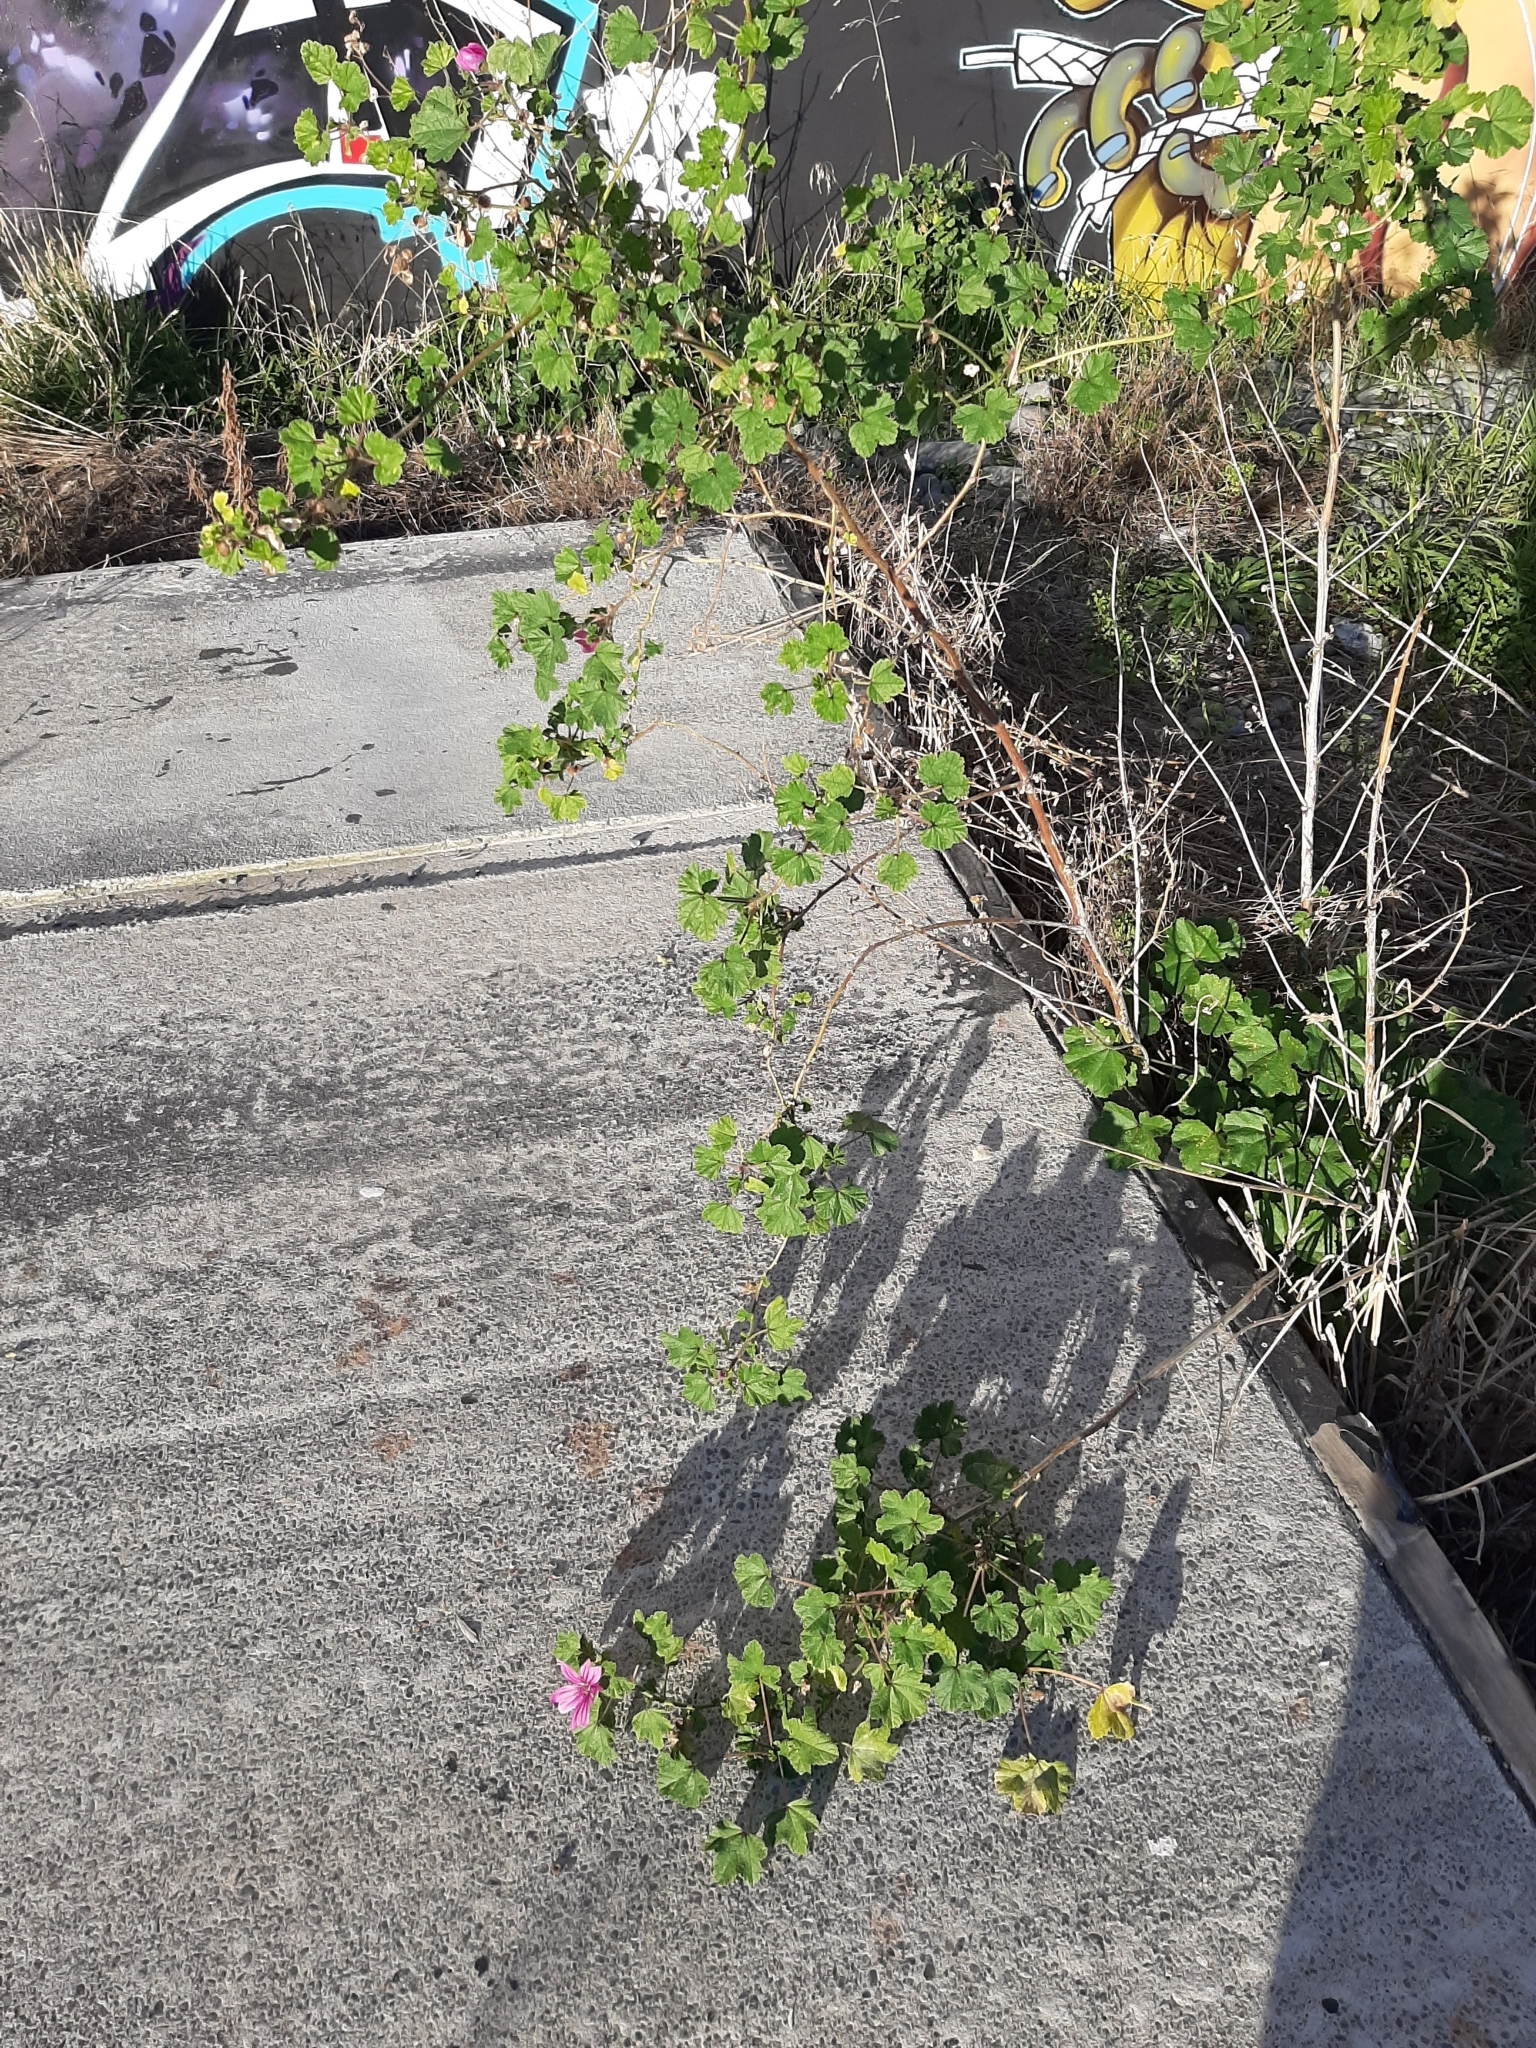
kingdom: Plantae
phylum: Tracheophyta
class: Magnoliopsida
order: Malvales
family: Malvaceae
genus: Malva
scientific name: Malva sylvestris
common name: Common mallow
